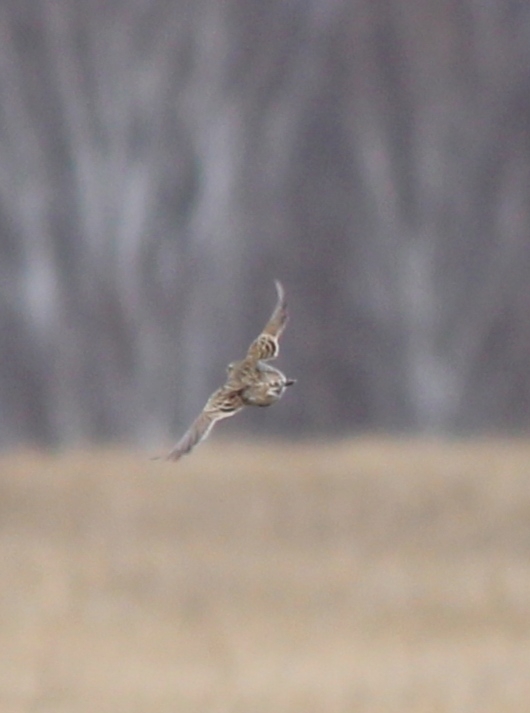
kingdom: Animalia
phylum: Chordata
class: Aves
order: Passeriformes
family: Alaudidae
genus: Alauda
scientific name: Alauda arvensis
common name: Eurasian skylark
